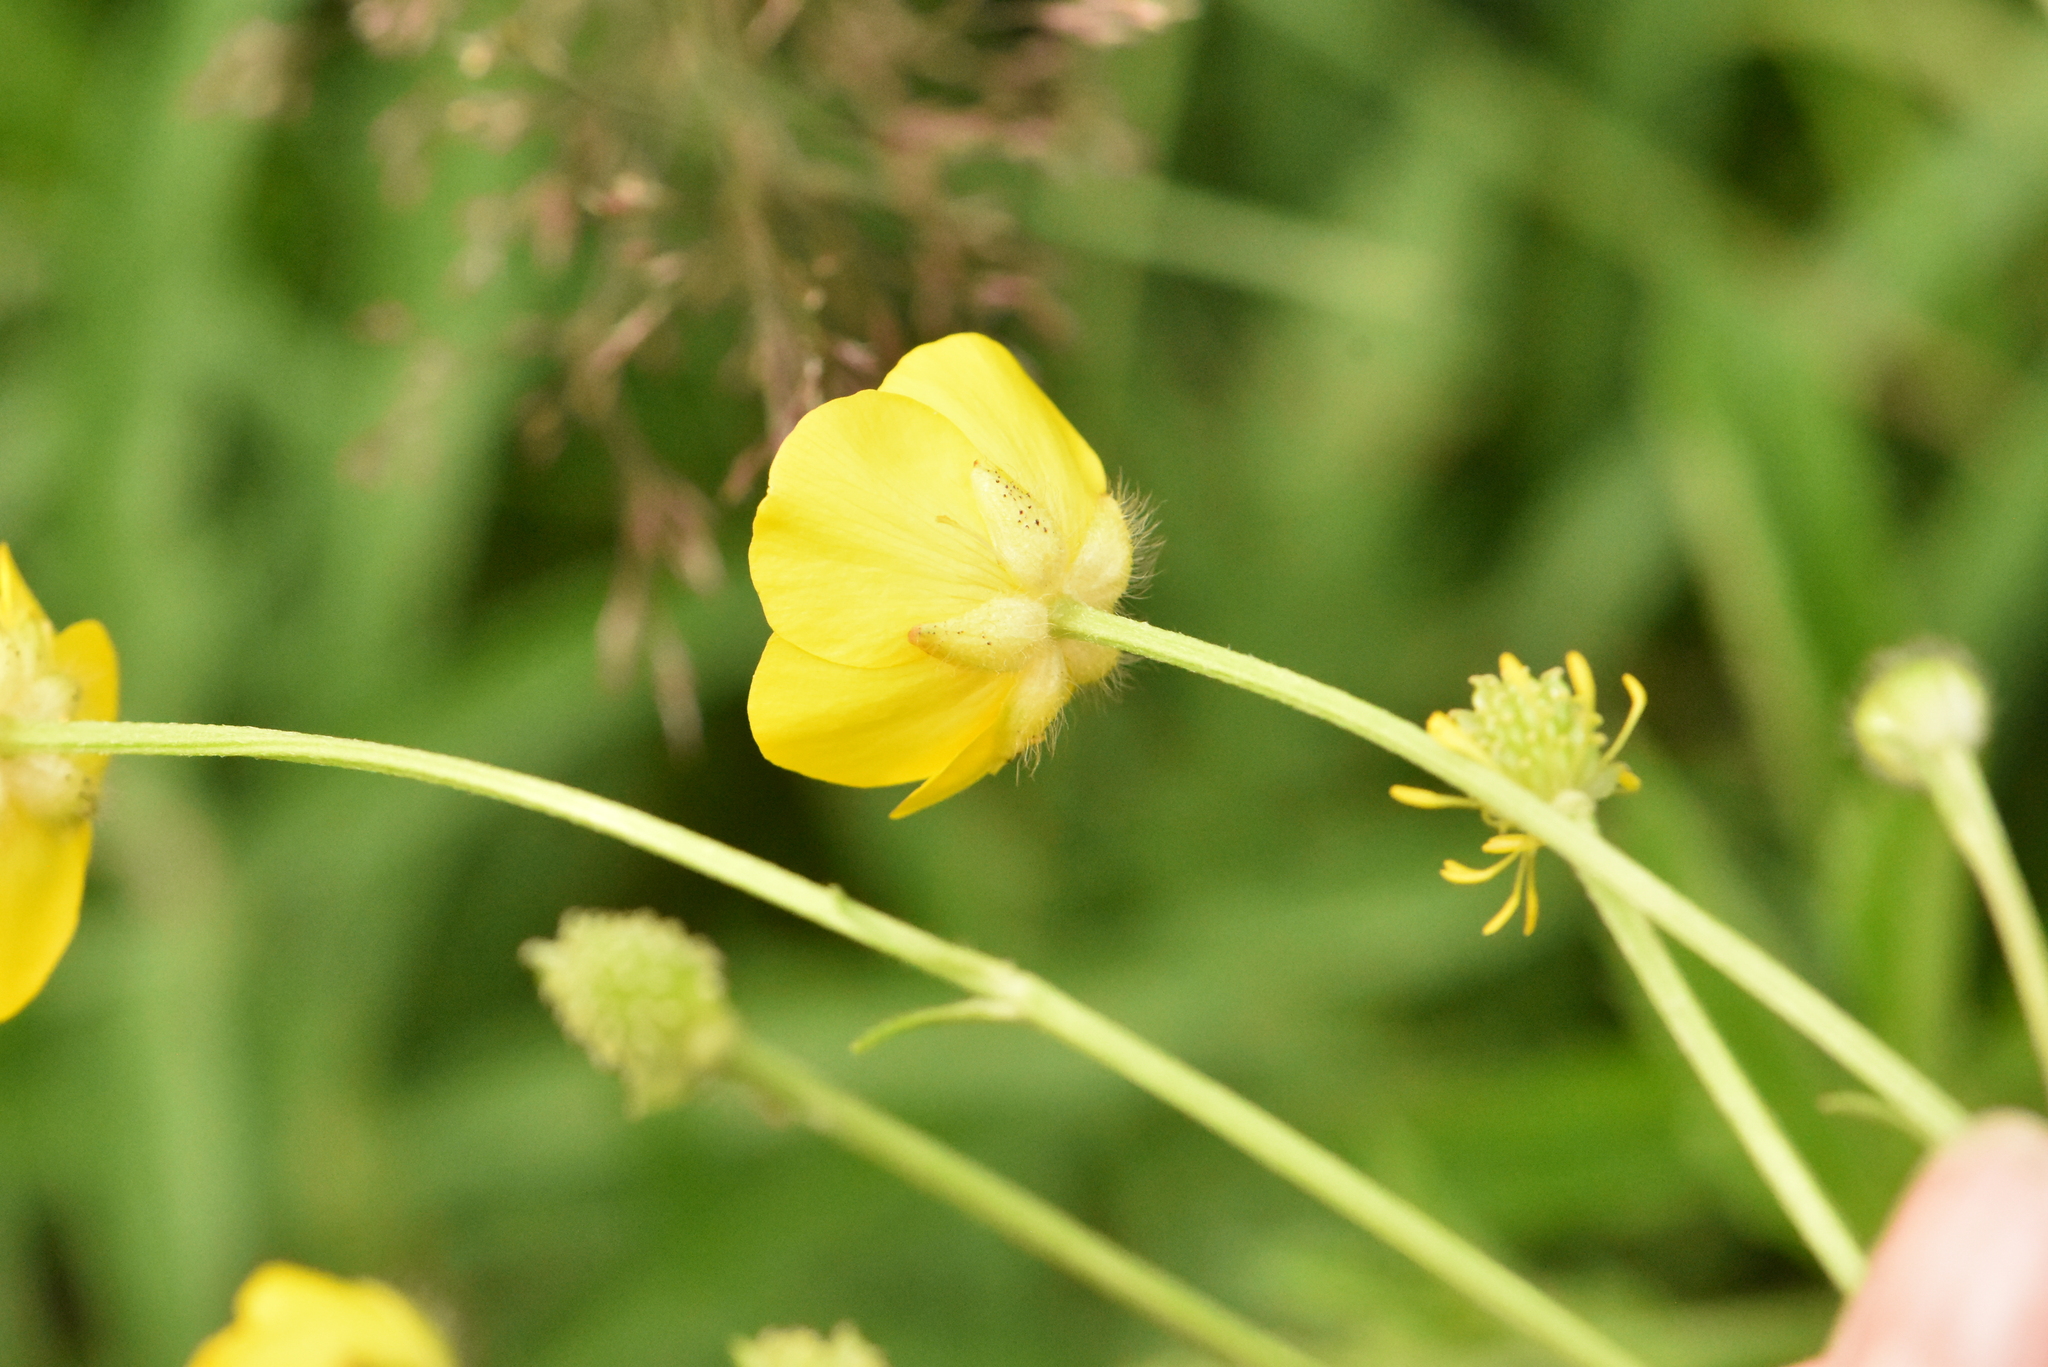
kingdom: Plantae
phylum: Tracheophyta
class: Magnoliopsida
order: Ranunculales
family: Ranunculaceae
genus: Ranunculus
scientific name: Ranunculus polyanthemos
